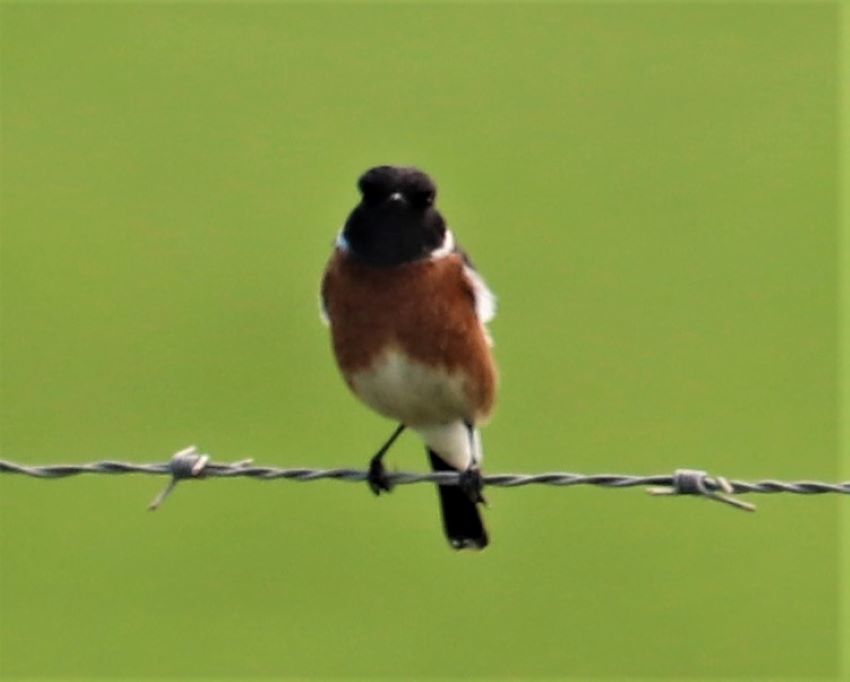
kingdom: Animalia
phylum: Chordata
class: Aves
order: Passeriformes
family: Muscicapidae
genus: Saxicola
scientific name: Saxicola torquatus
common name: African stonechat
